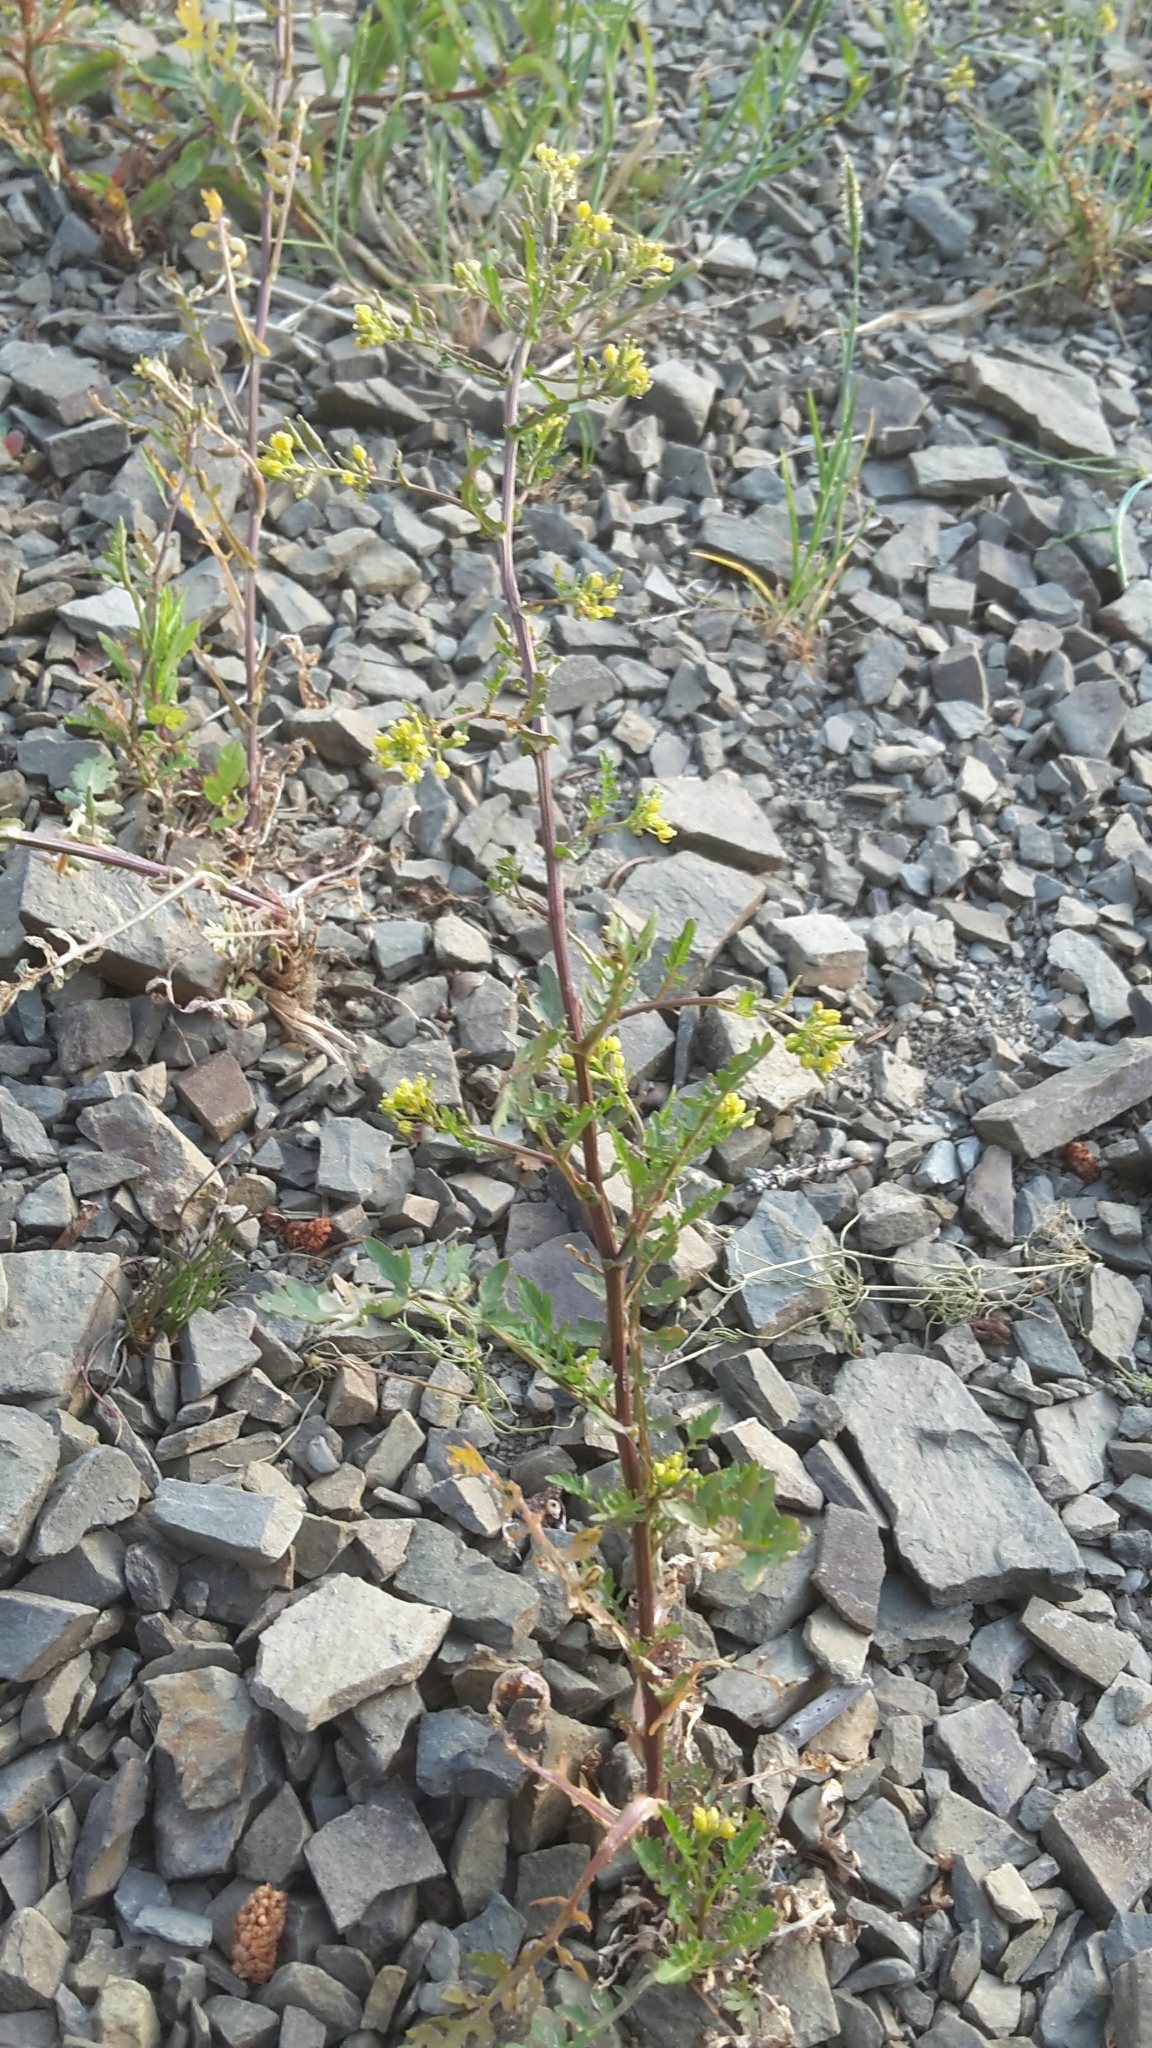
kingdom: Plantae
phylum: Tracheophyta
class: Magnoliopsida
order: Brassicales
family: Brassicaceae
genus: Rorippa
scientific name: Rorippa palustris
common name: Marsh yellow-cress
